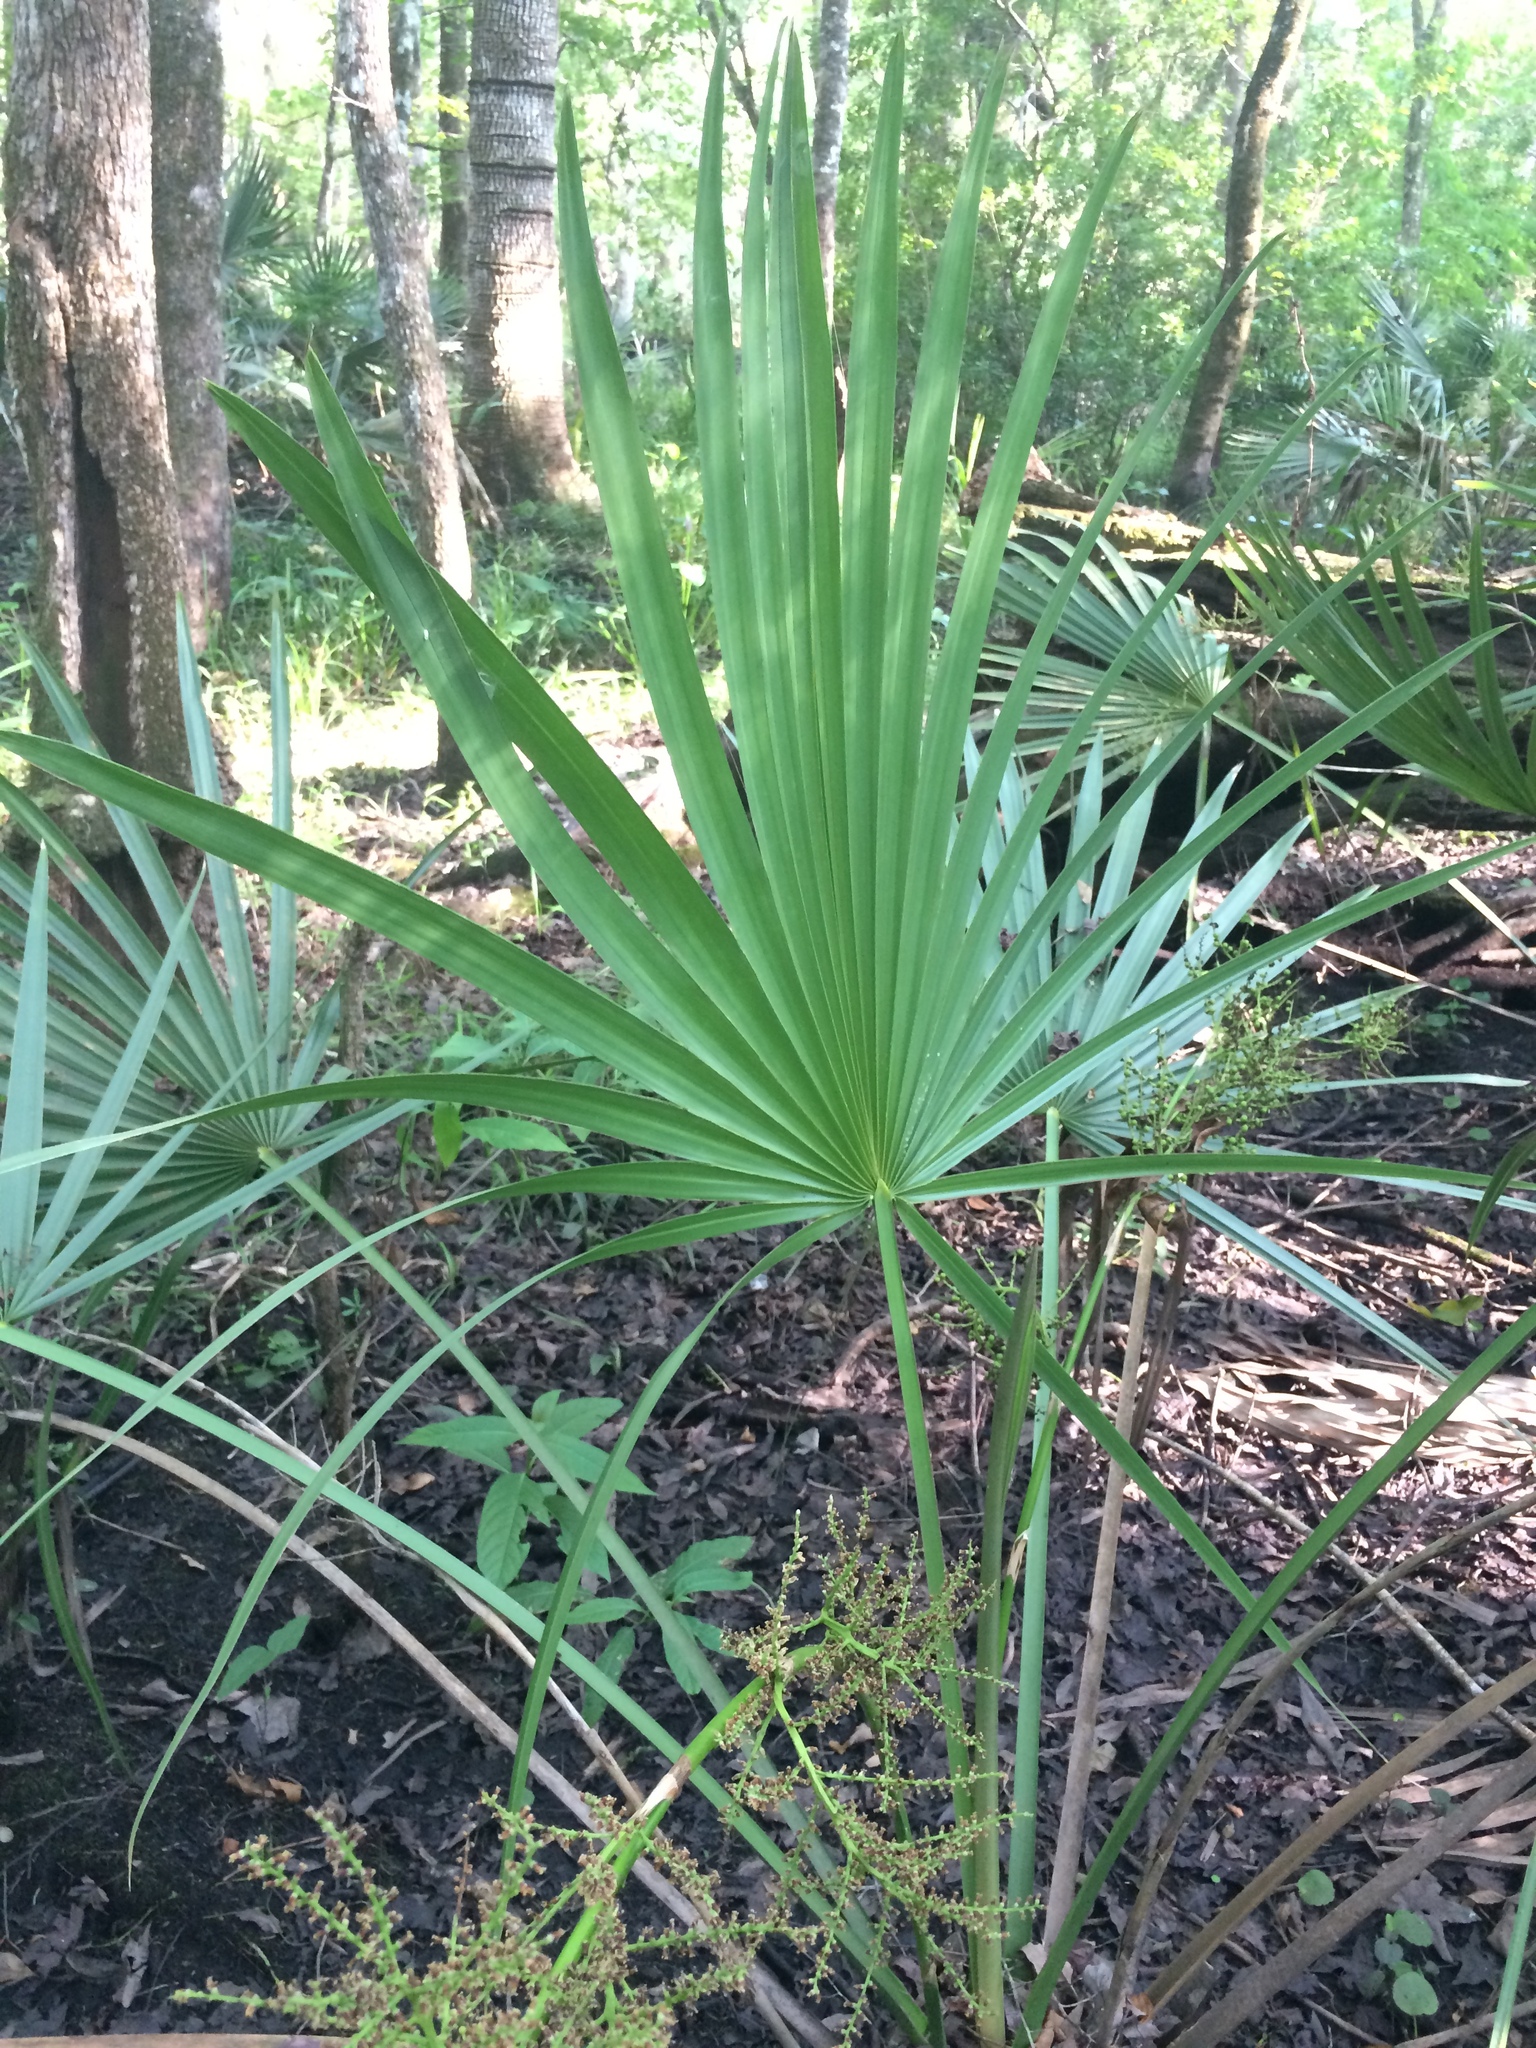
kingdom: Plantae
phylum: Tracheophyta
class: Liliopsida
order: Arecales
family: Arecaceae
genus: Sabal
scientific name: Sabal minor
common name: Dwarf palmetto
